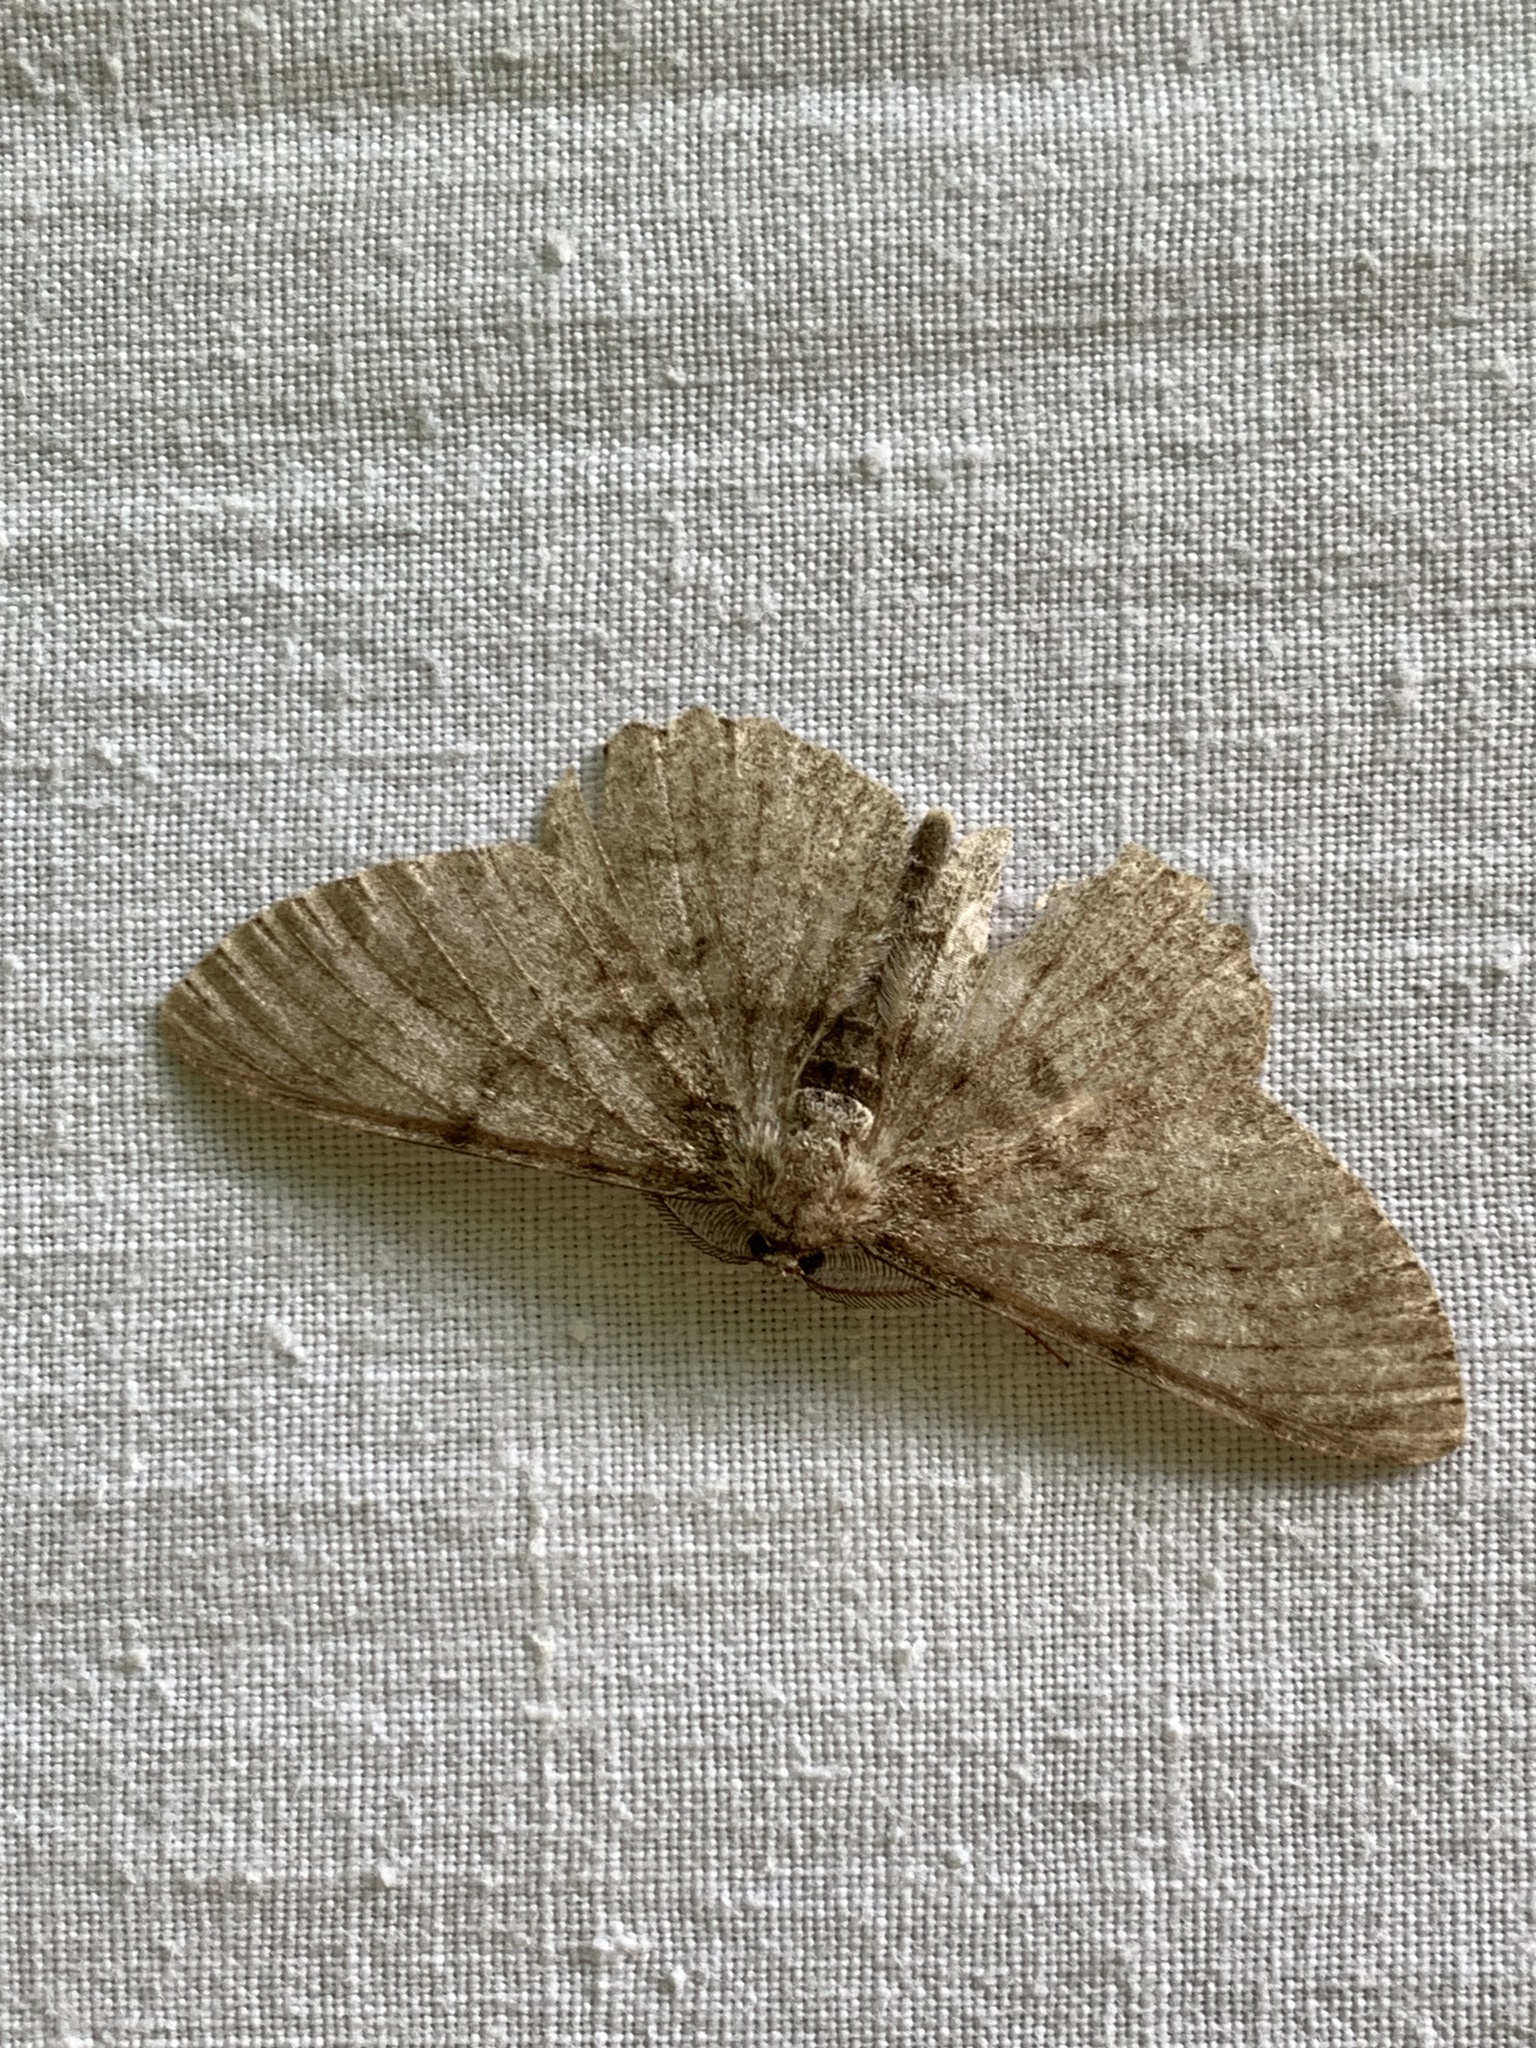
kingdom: Animalia
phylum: Arthropoda
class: Insecta
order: Lepidoptera
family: Geometridae
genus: Hypomecis
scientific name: Hypomecis punctinalis
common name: Pale oak beauty
